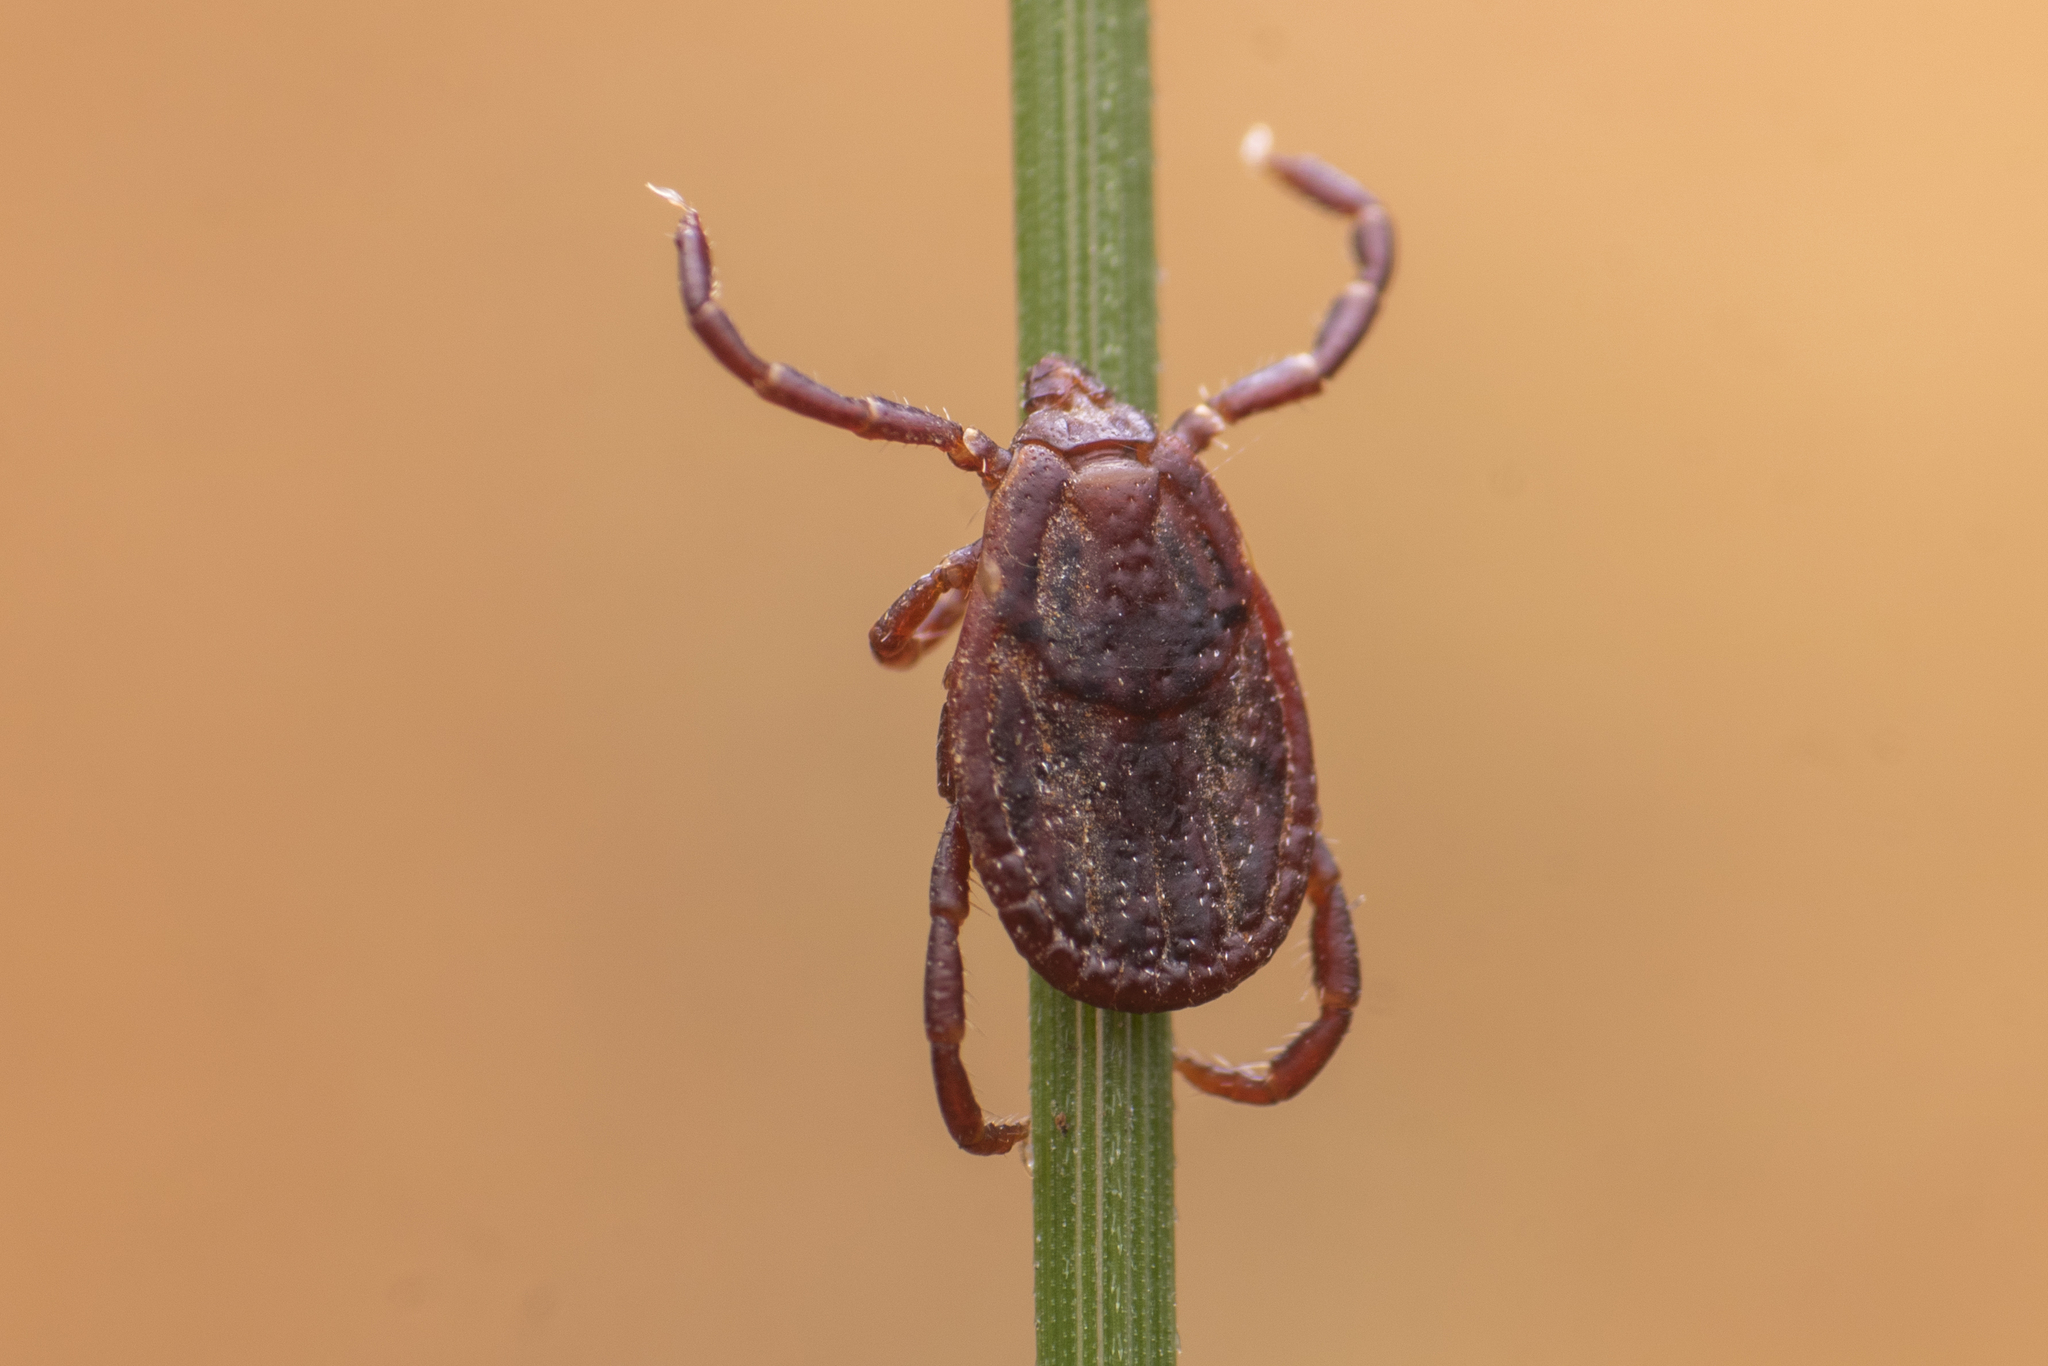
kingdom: Animalia
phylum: Arthropoda
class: Arachnida
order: Ixodida
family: Ixodidae
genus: Rhipicephalus
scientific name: Rhipicephalus sanguineus
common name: Brown dog tick
